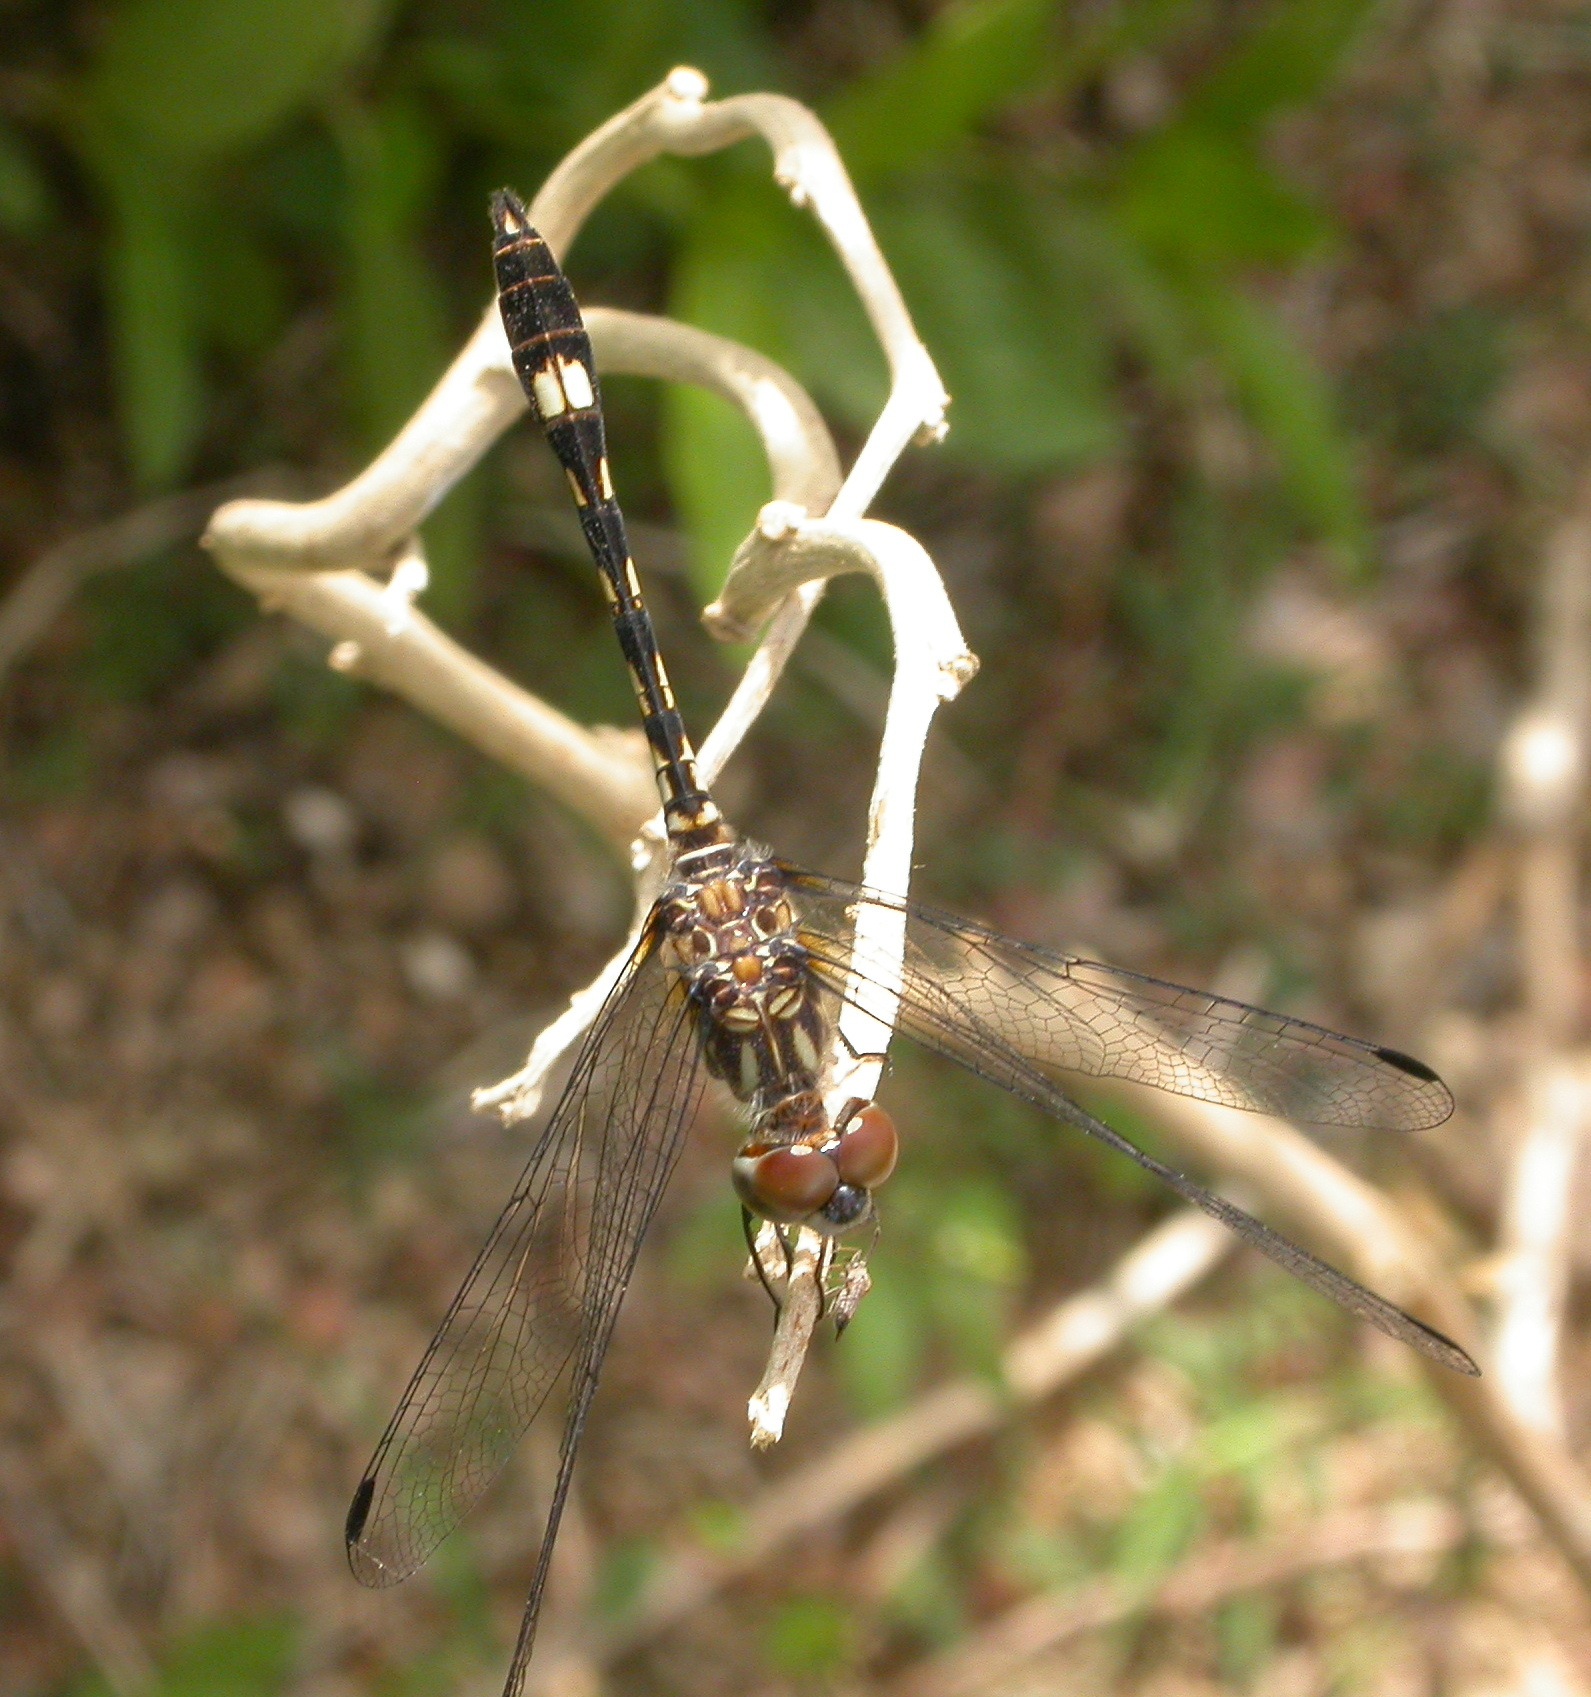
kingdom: Animalia
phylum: Arthropoda
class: Insecta
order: Odonata
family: Libellulidae
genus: Micrathyria
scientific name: Micrathyria hagenii
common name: Thornbush dasher
